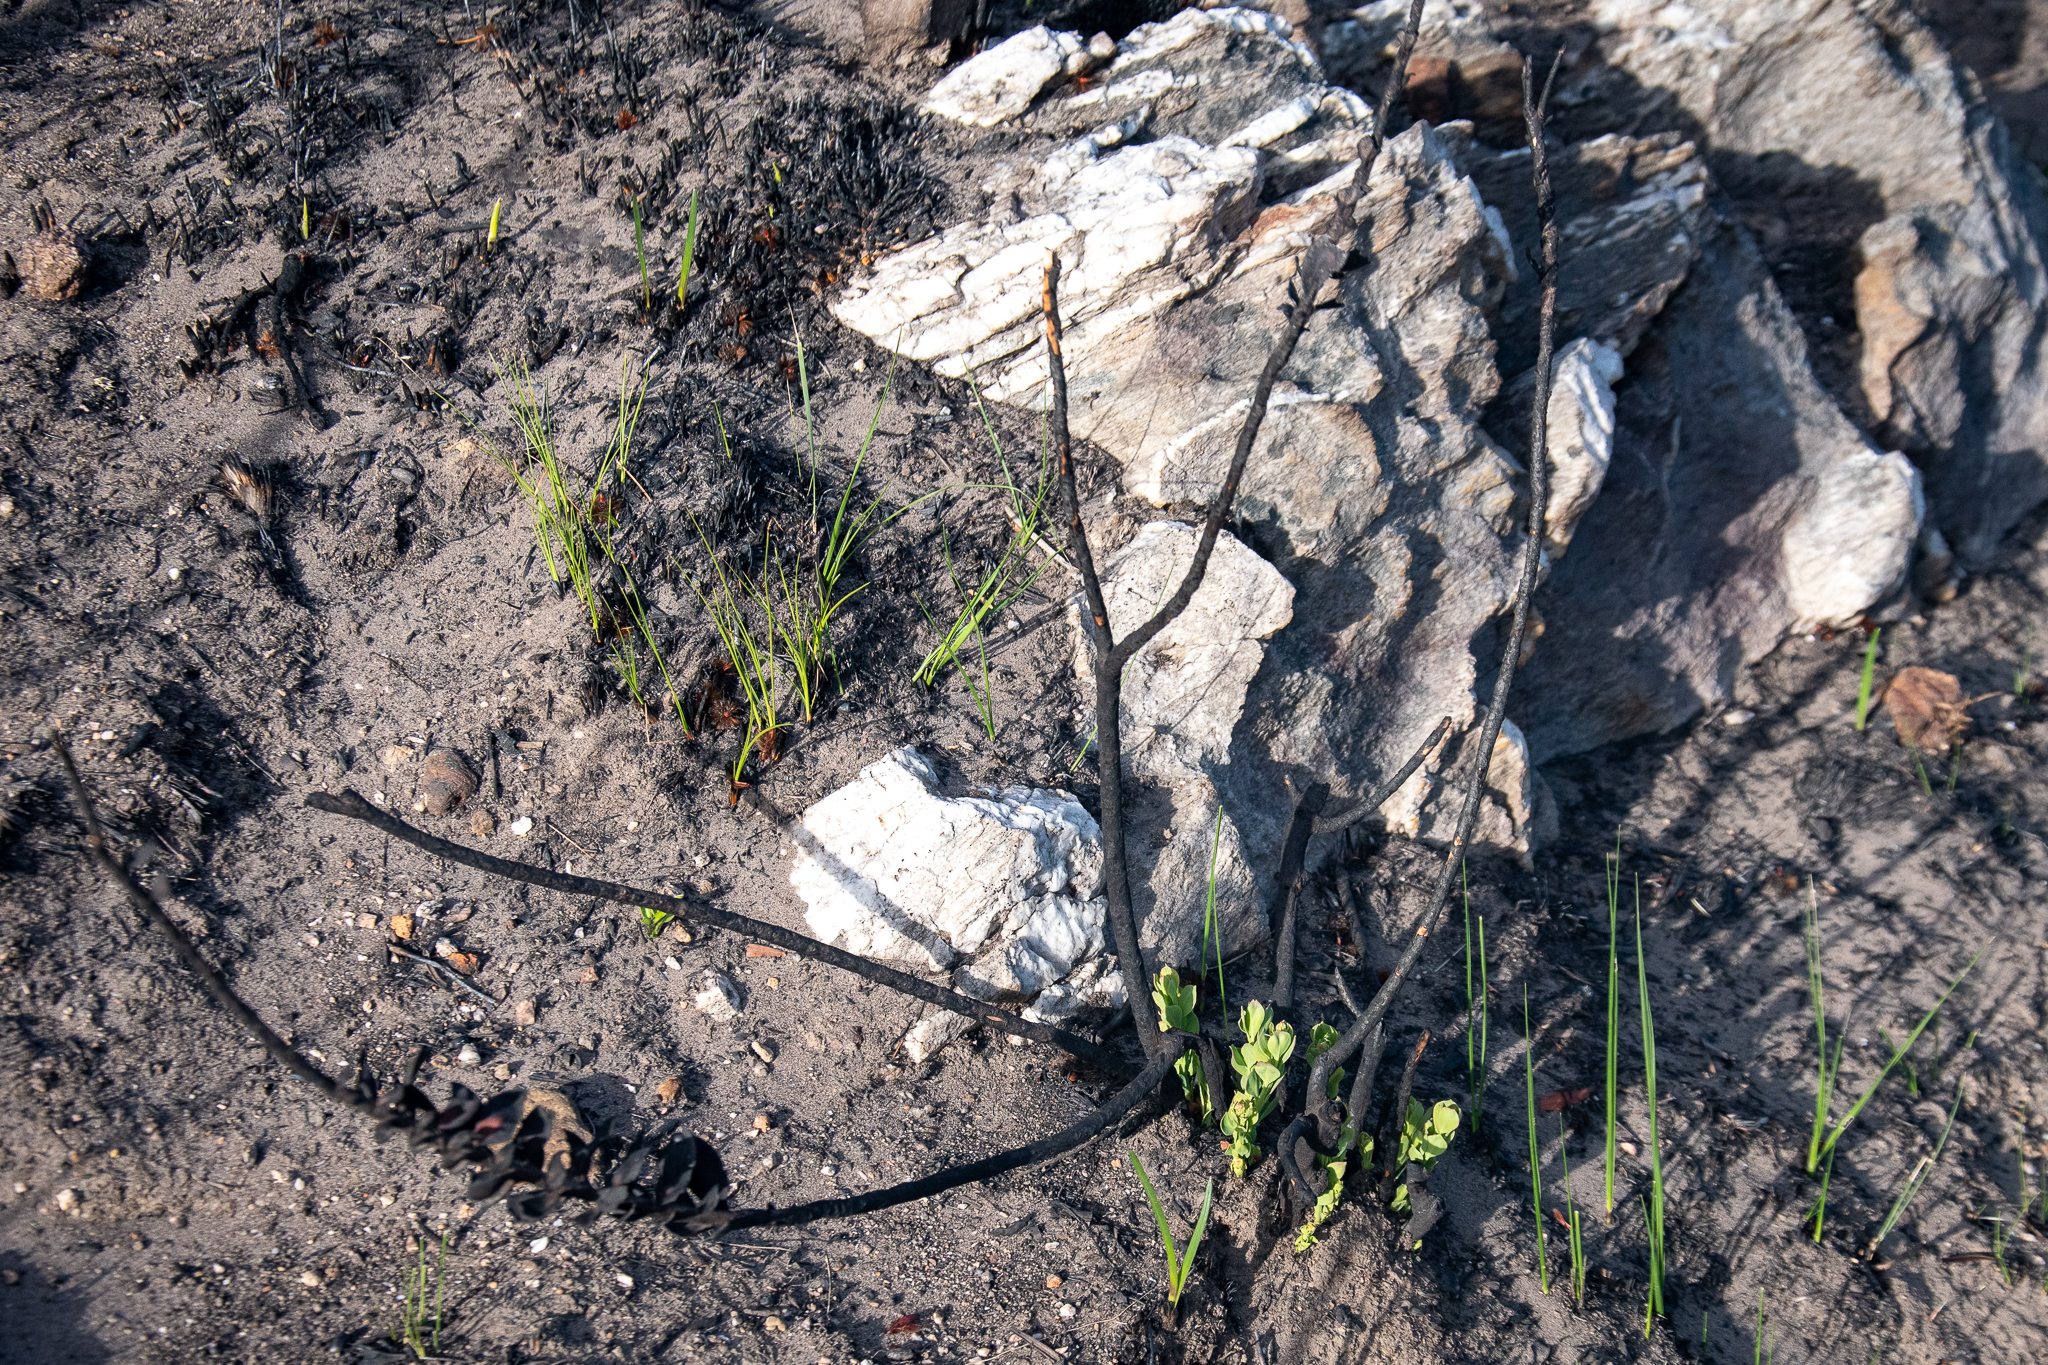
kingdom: Plantae
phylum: Tracheophyta
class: Magnoliopsida
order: Santalales
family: Santalaceae
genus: Osyris
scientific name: Osyris compressa
